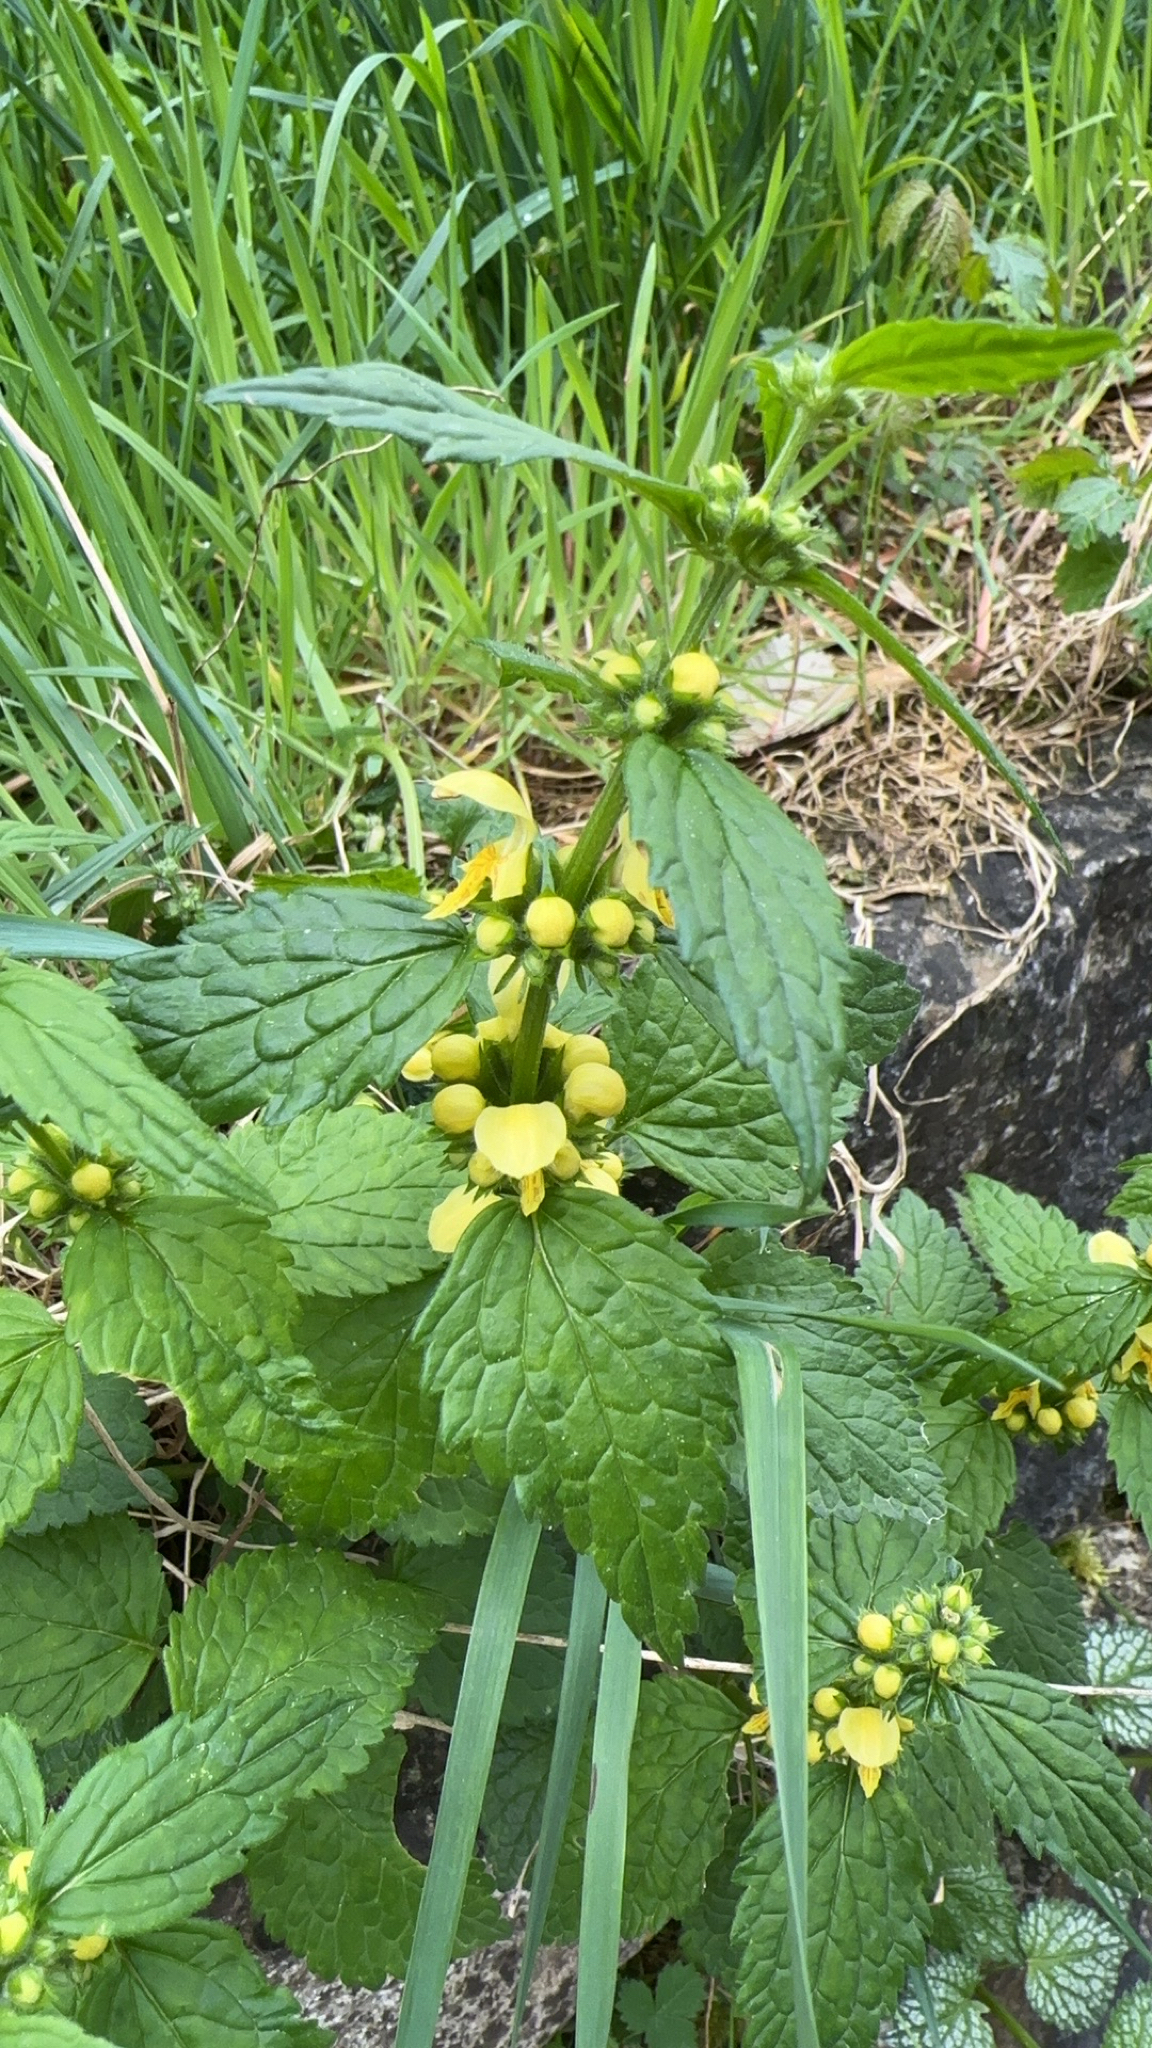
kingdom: Plantae
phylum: Tracheophyta
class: Magnoliopsida
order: Lamiales
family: Lamiaceae
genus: Lamium
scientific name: Lamium galeobdolon
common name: Yellow archangel
